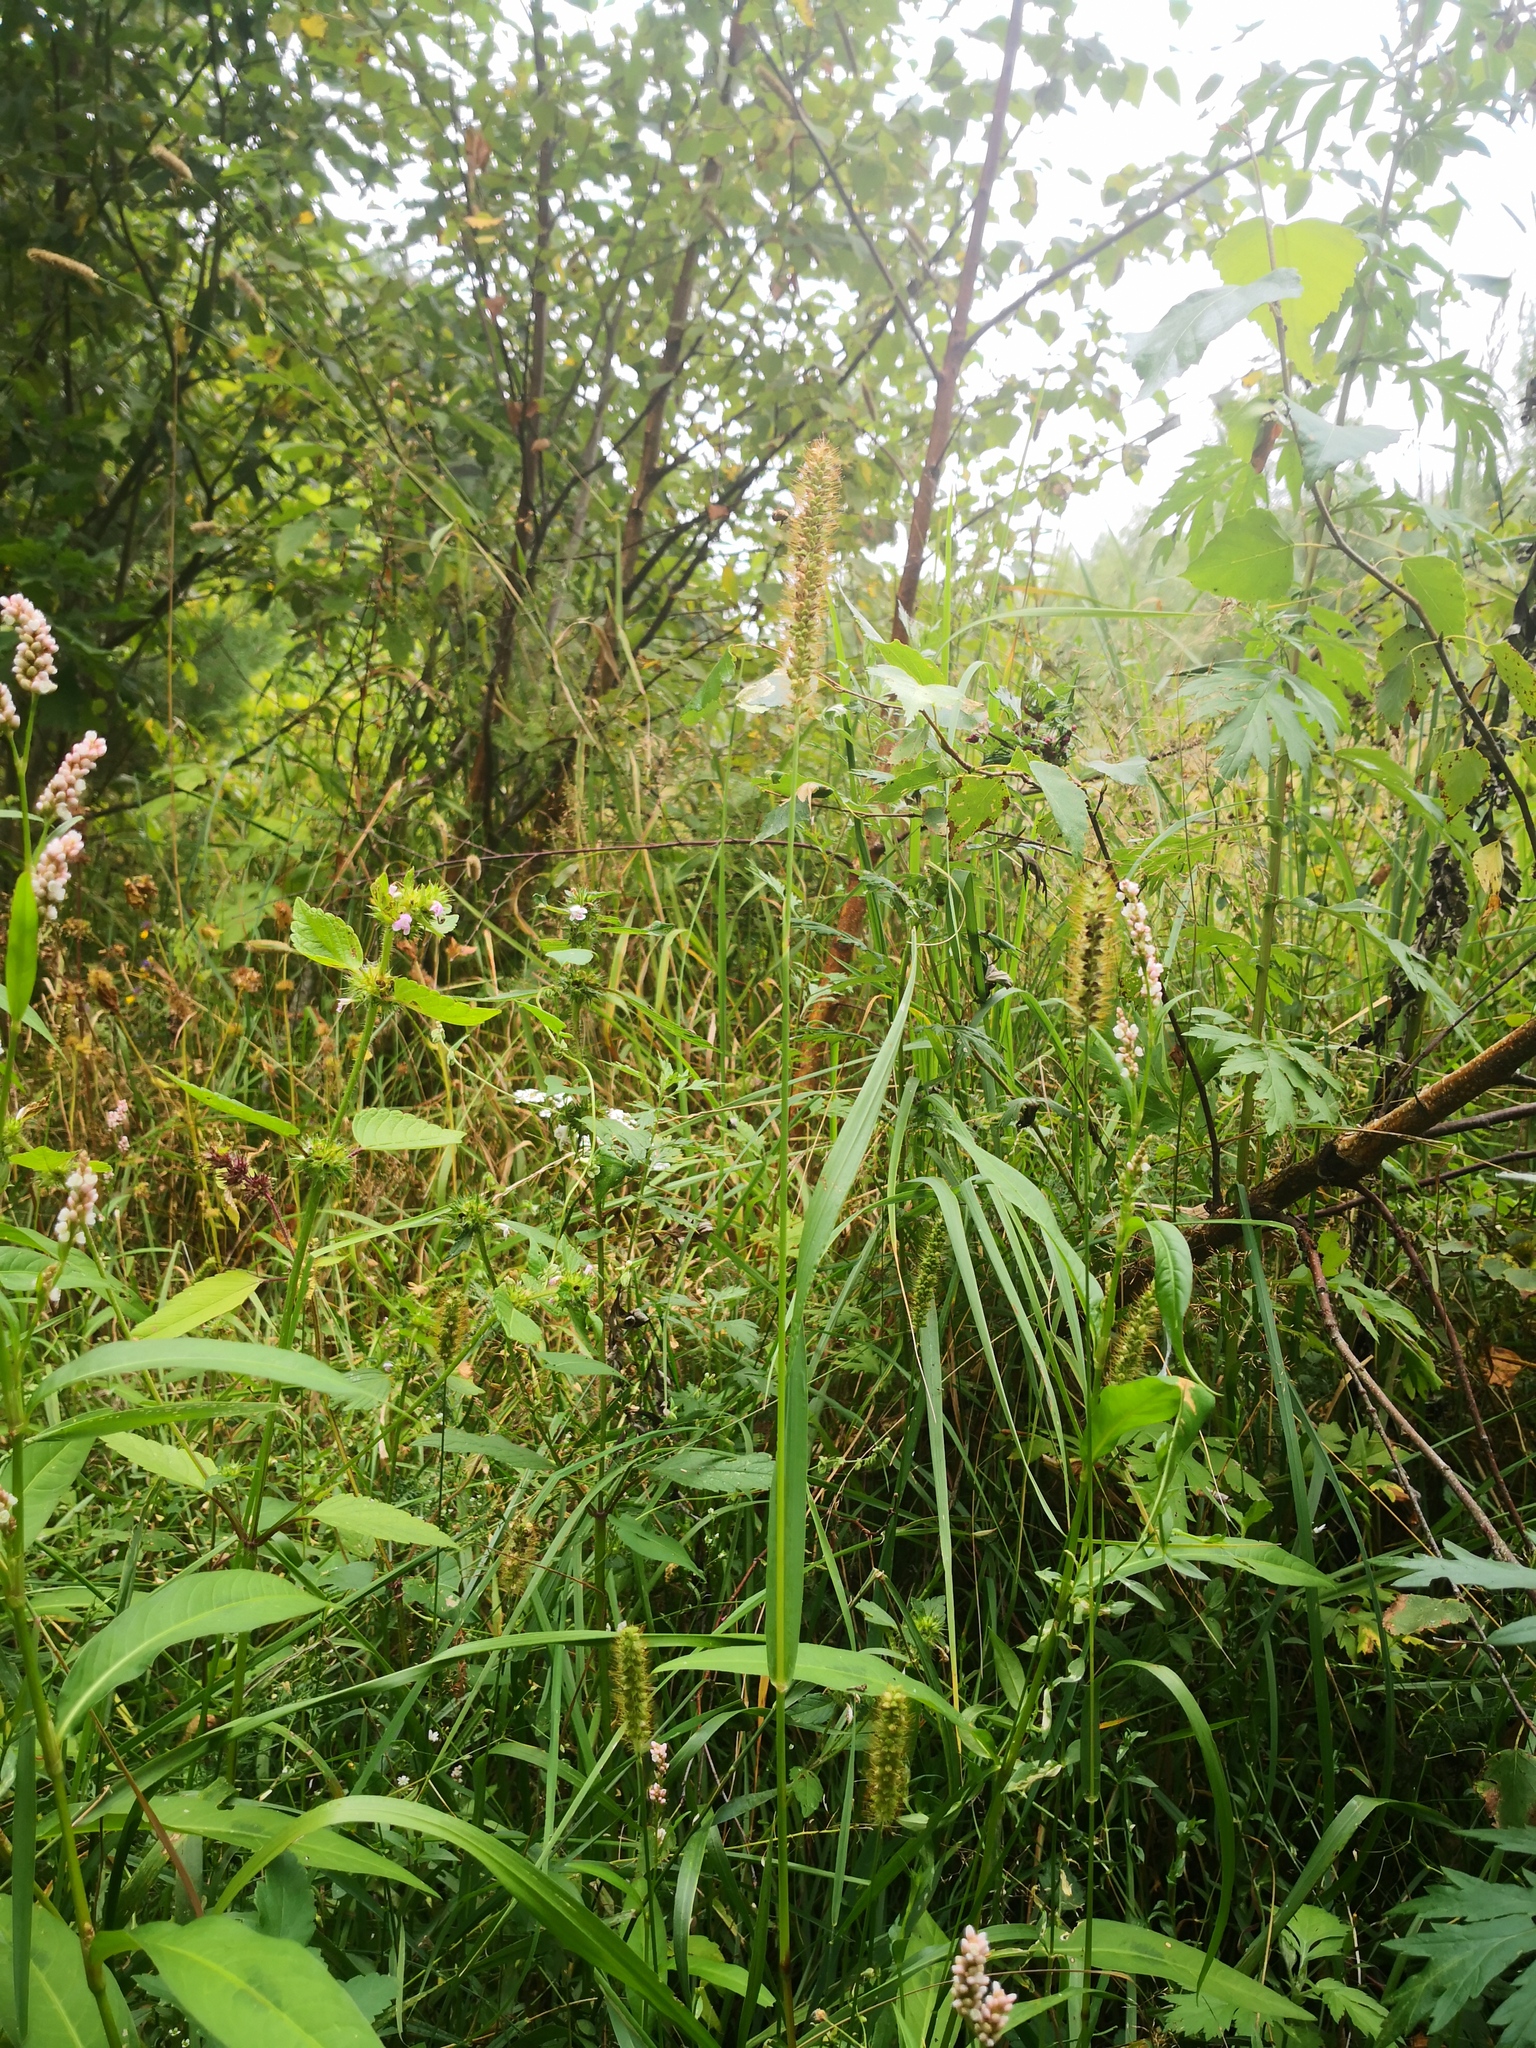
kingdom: Plantae
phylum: Tracheophyta
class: Liliopsida
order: Poales
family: Poaceae
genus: Setaria
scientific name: Setaria pumila
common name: Yellow bristle-grass
